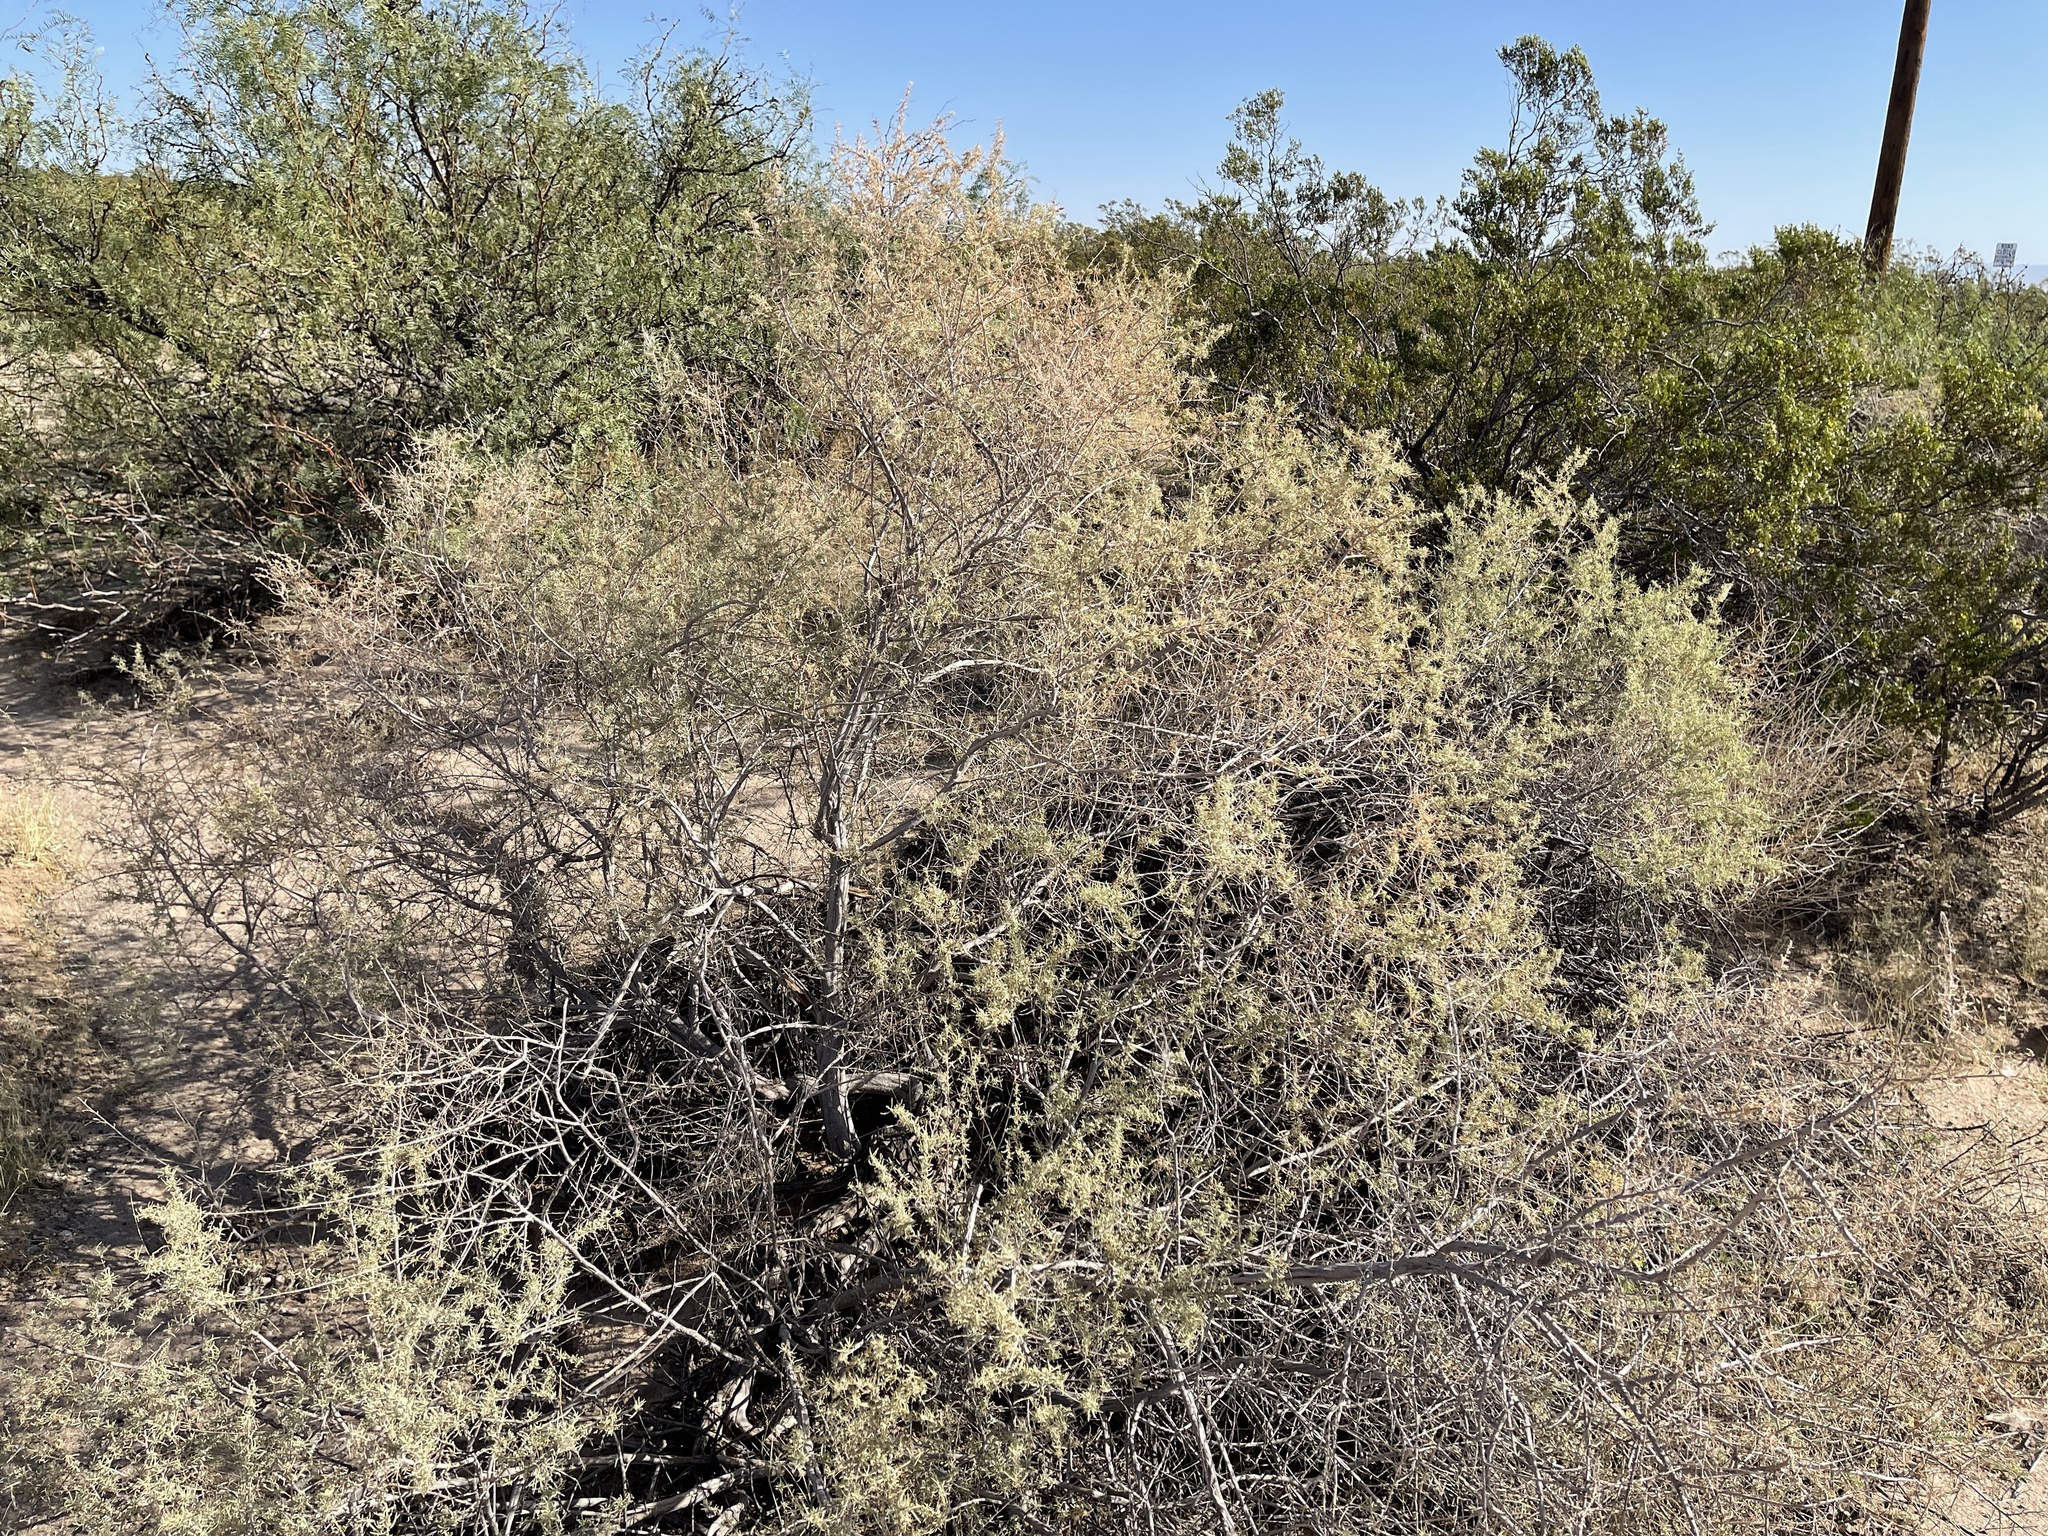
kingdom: Plantae
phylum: Tracheophyta
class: Magnoliopsida
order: Caryophyllales
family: Amaranthaceae
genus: Atriplex
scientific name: Atriplex canescens
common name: Four-wing saltbush
